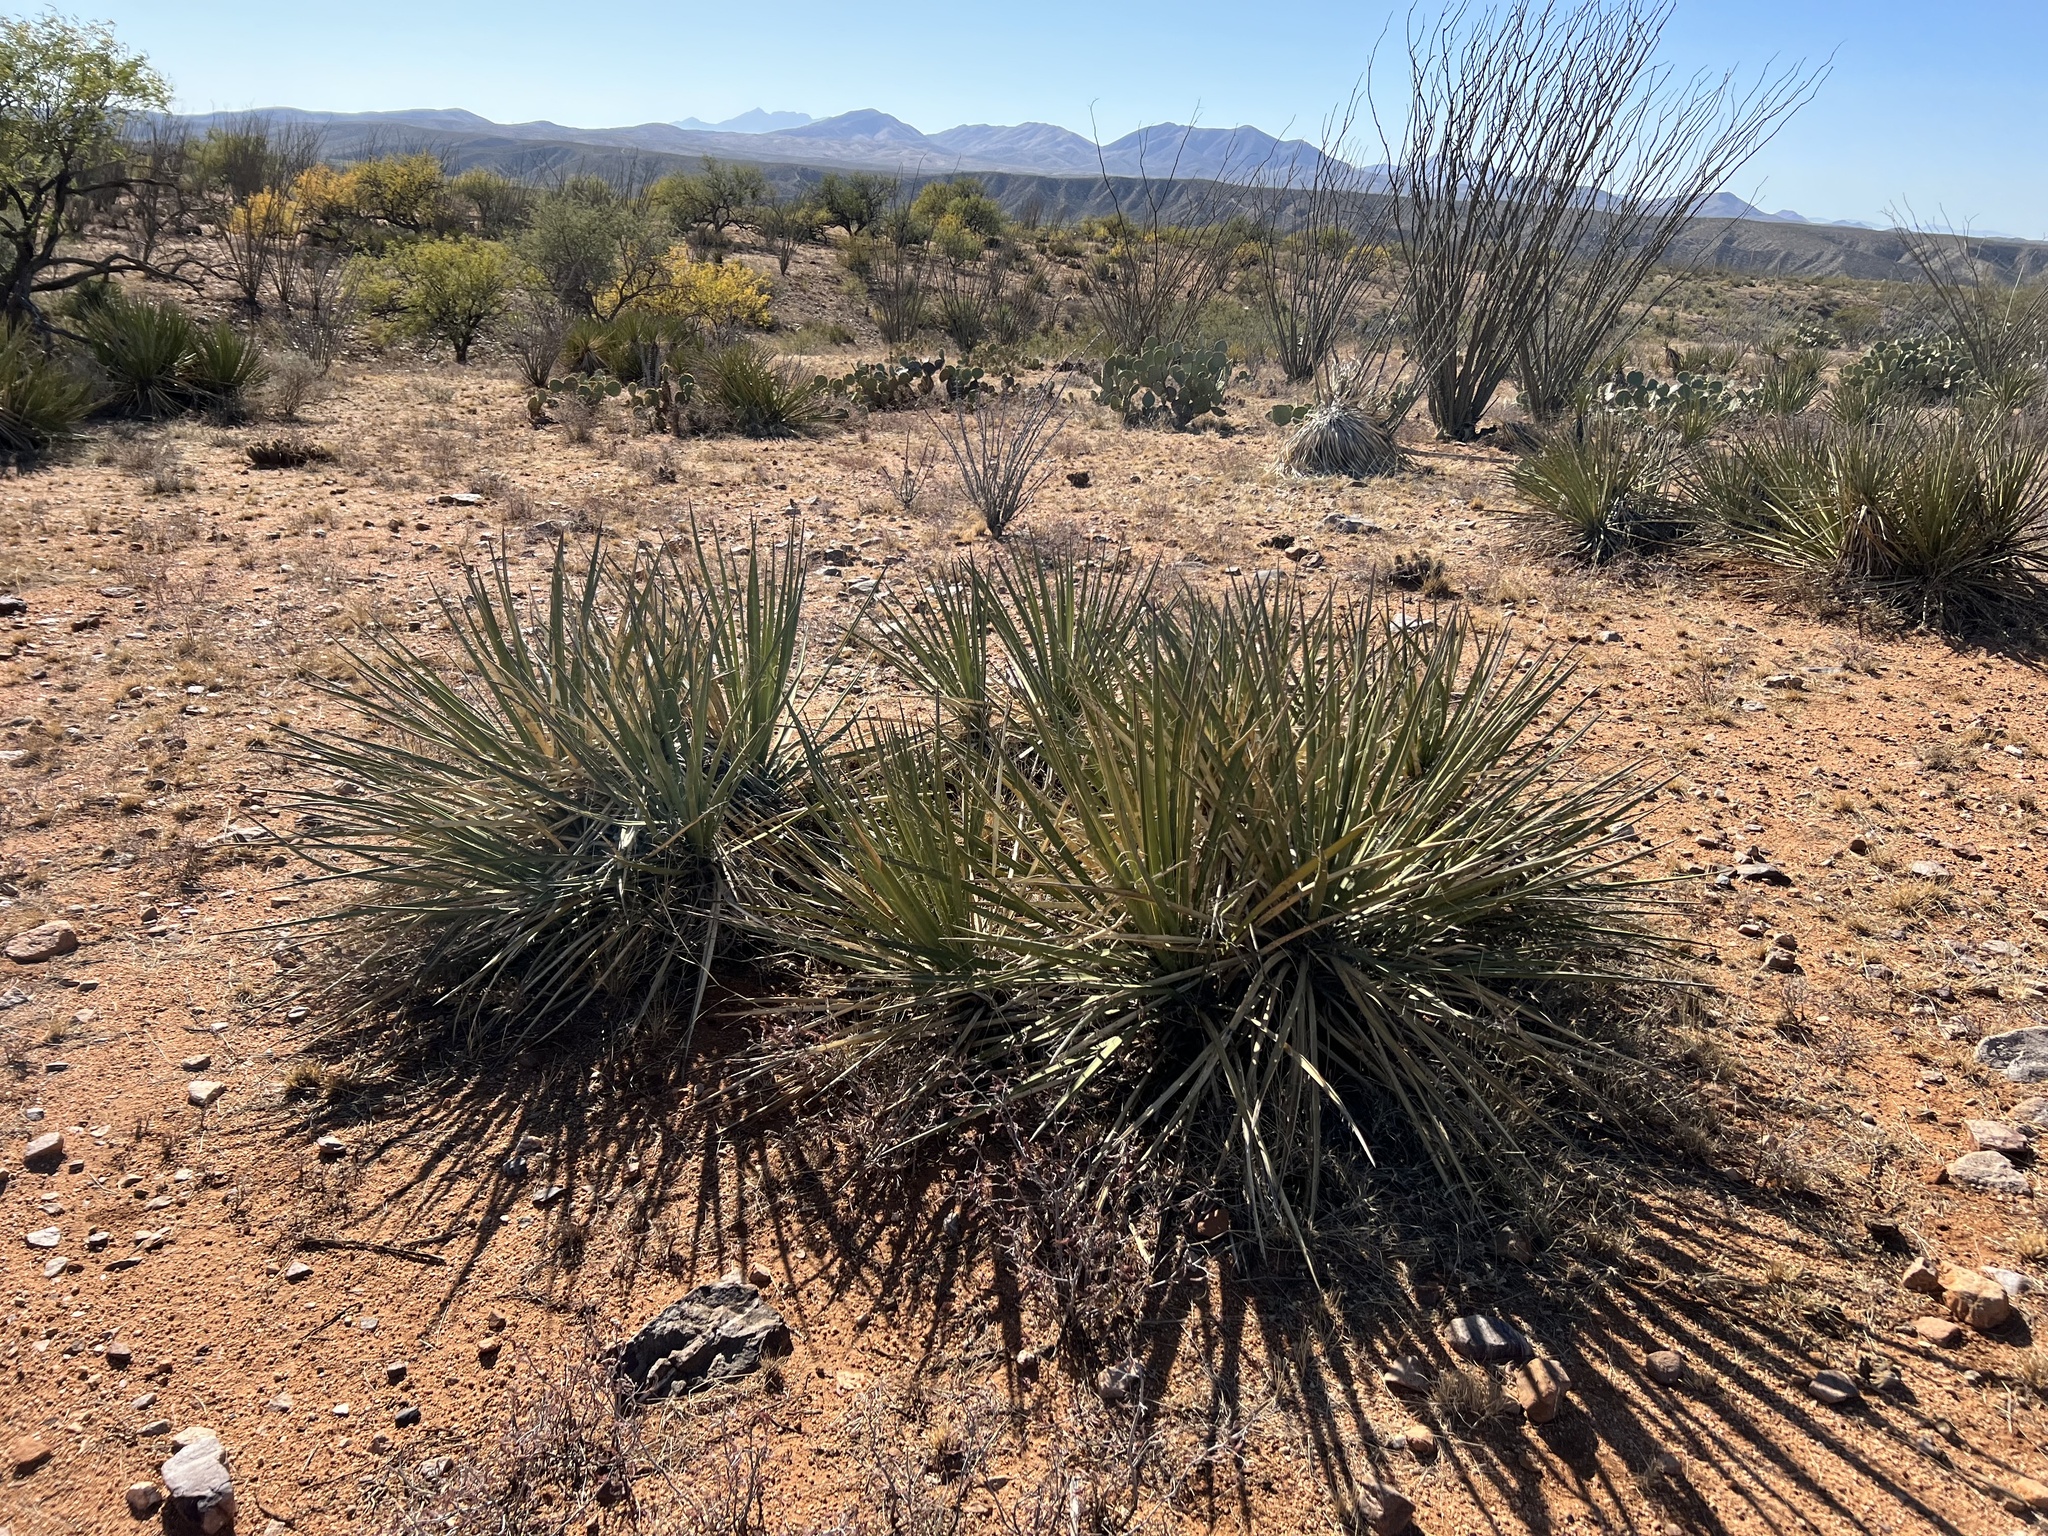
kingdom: Plantae
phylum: Tracheophyta
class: Liliopsida
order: Asparagales
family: Asparagaceae
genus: Yucca
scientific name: Yucca baccata
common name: Banana yucca
